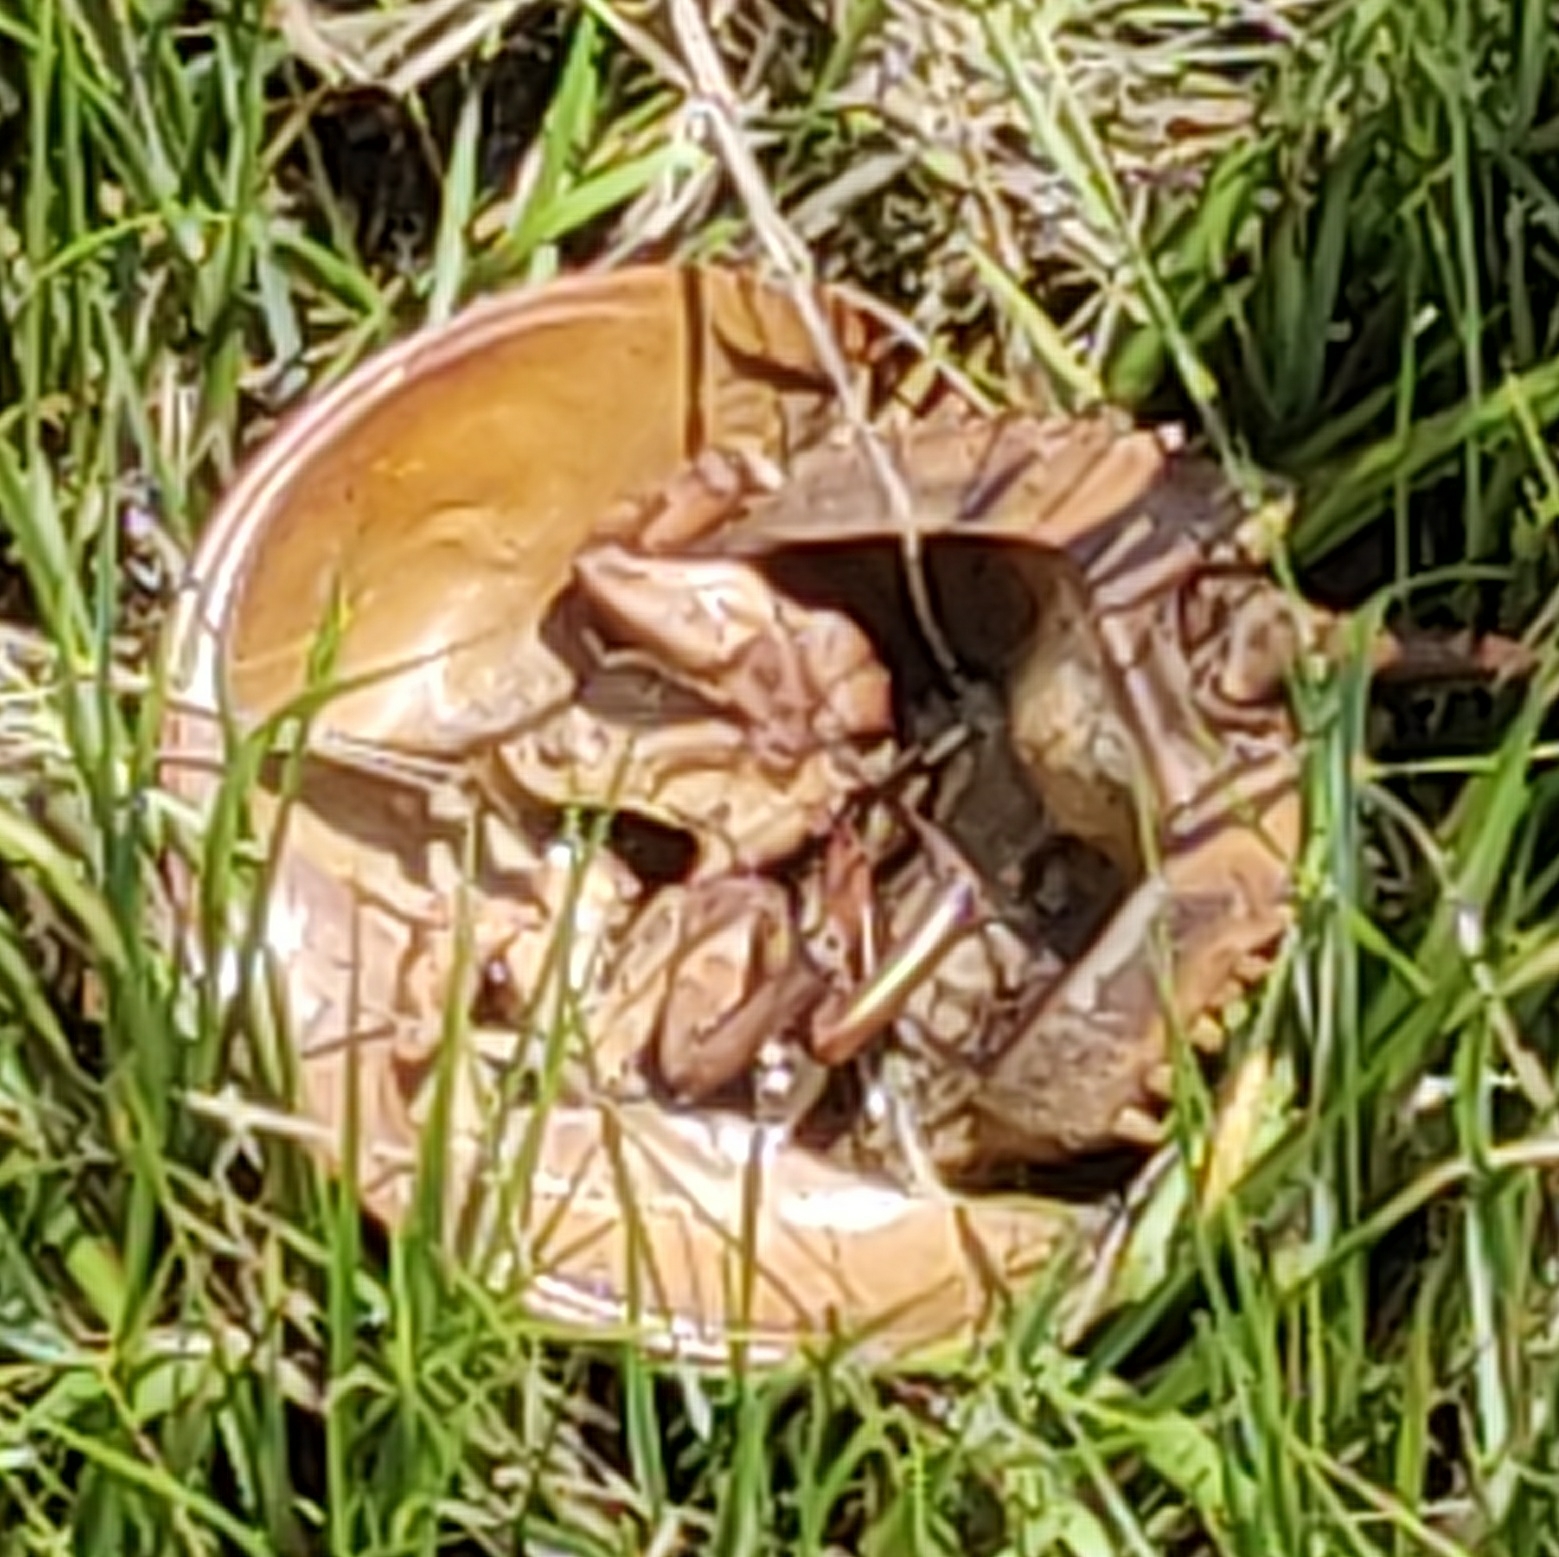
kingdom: Animalia
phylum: Arthropoda
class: Merostomata
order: Xiphosurida
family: Limulidae
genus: Limulus
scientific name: Limulus polyphemus
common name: Horseshoe crab
